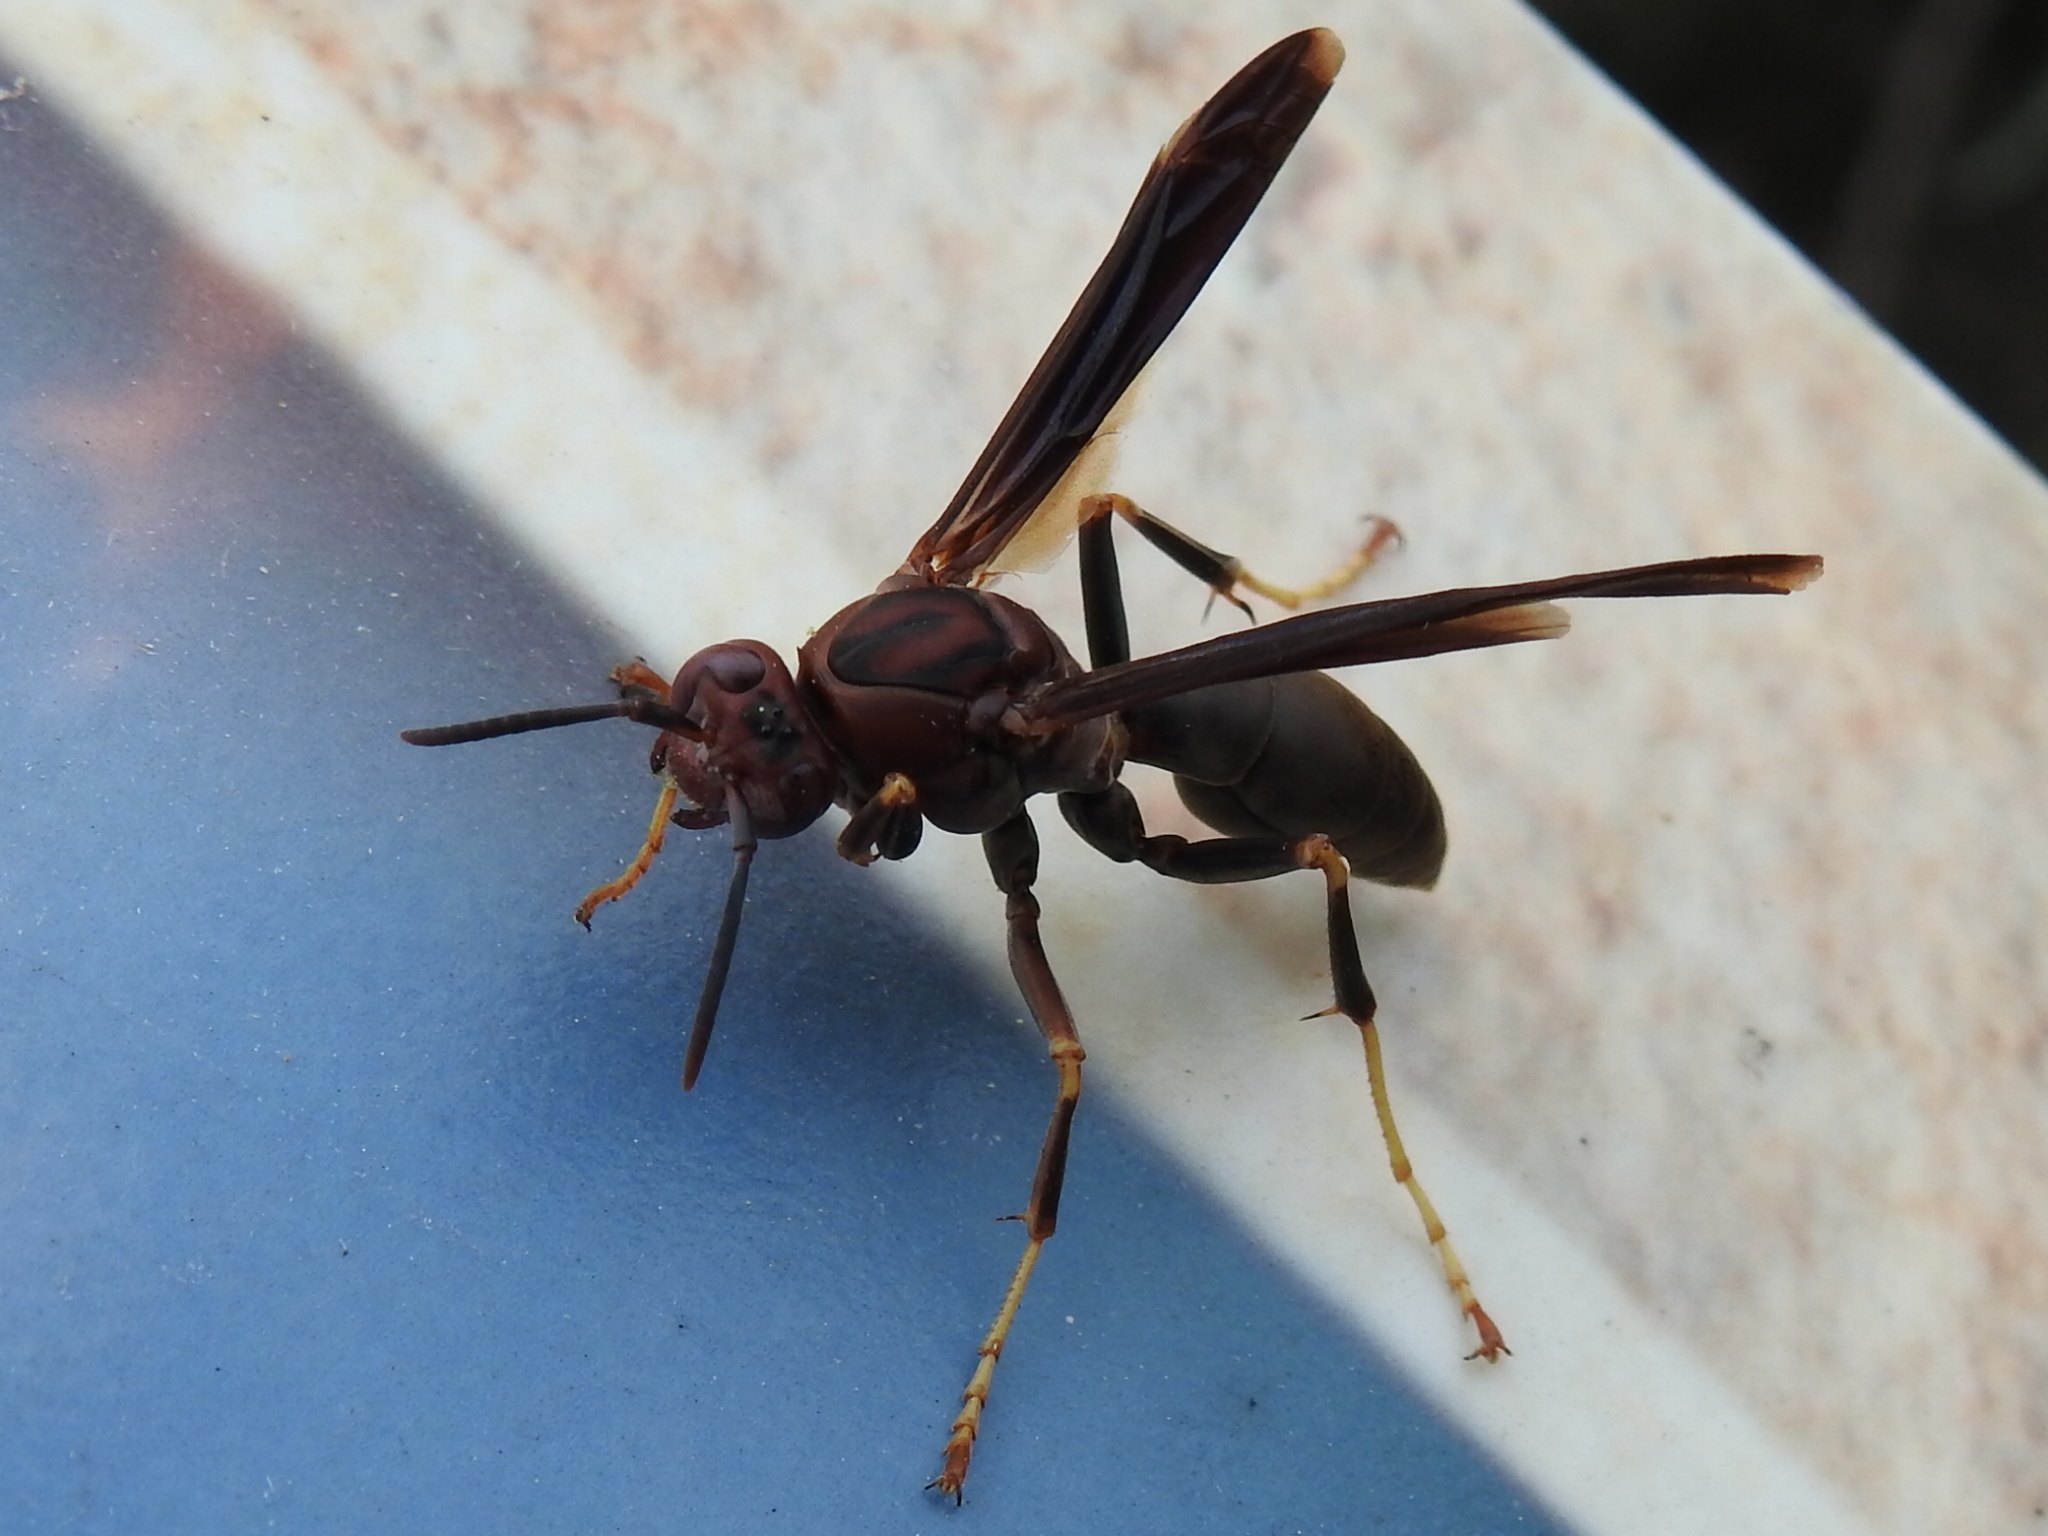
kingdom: Animalia
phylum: Arthropoda
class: Insecta
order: Hymenoptera
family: Eumenidae
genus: Polistes
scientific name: Polistes metricus
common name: Metric paper wasp
